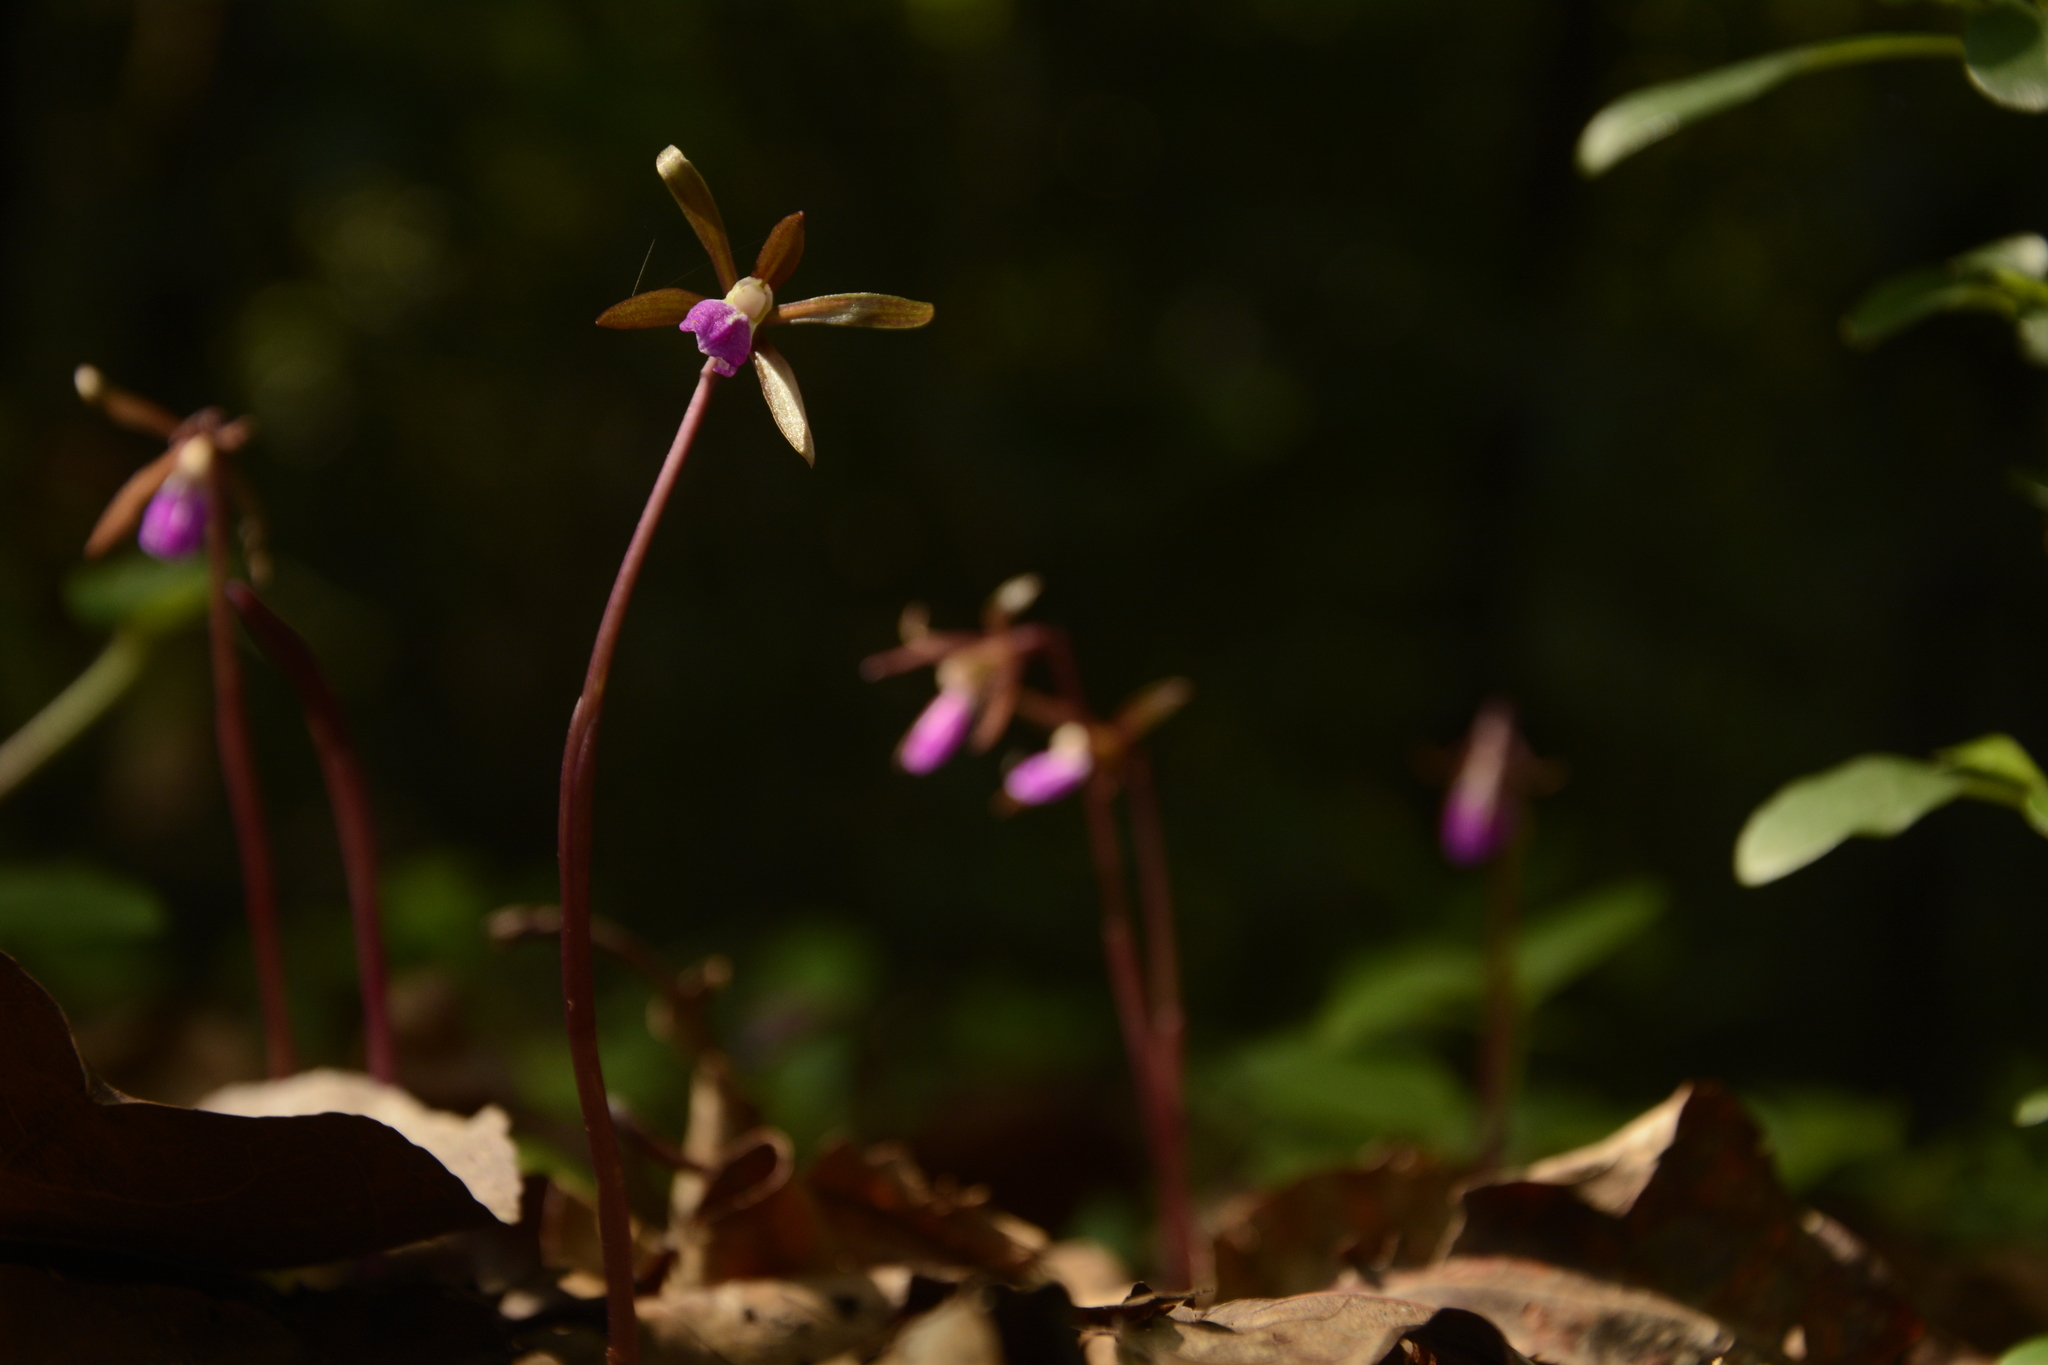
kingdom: Plantae
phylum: Tracheophyta
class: Liliopsida
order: Asparagales
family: Orchidaceae
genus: Nervilia
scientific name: Nervilia infundibulifolia
